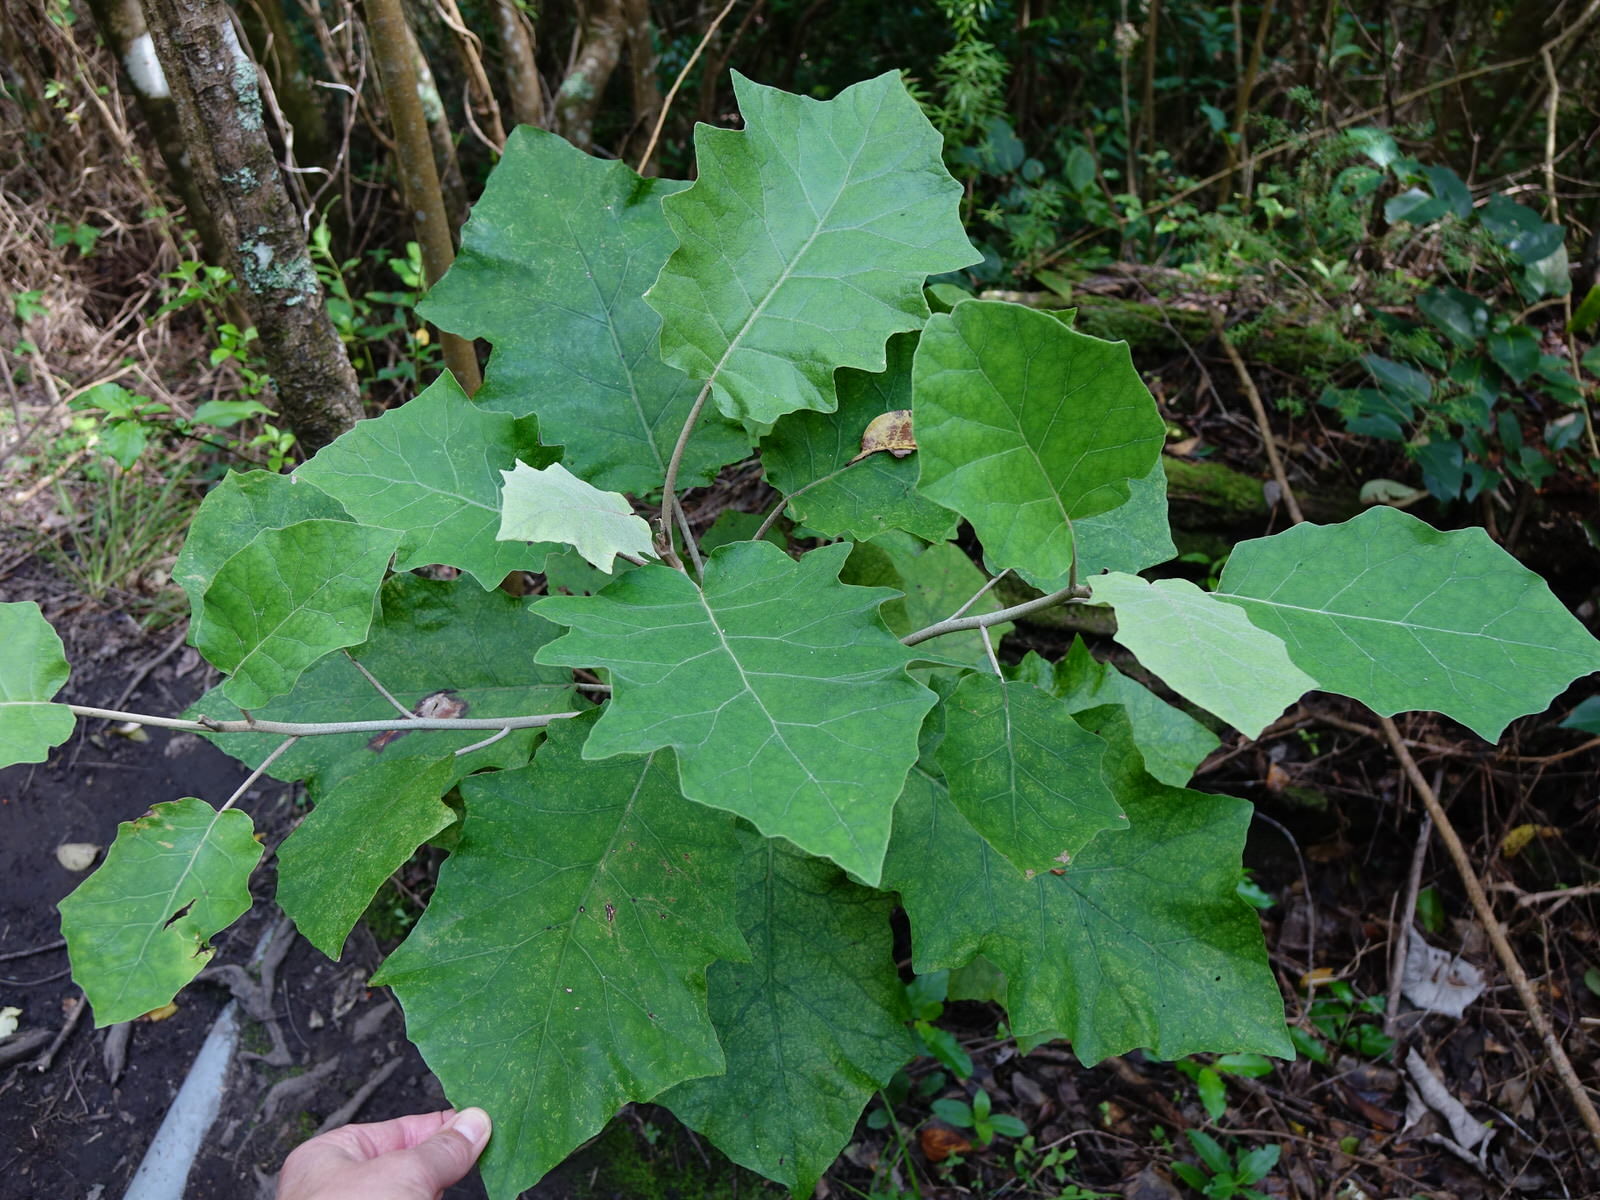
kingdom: Plantae
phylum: Tracheophyta
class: Magnoliopsida
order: Asterales
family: Asteraceae
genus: Brachyglottis
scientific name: Brachyglottis repanda
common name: Hedge ragwort
